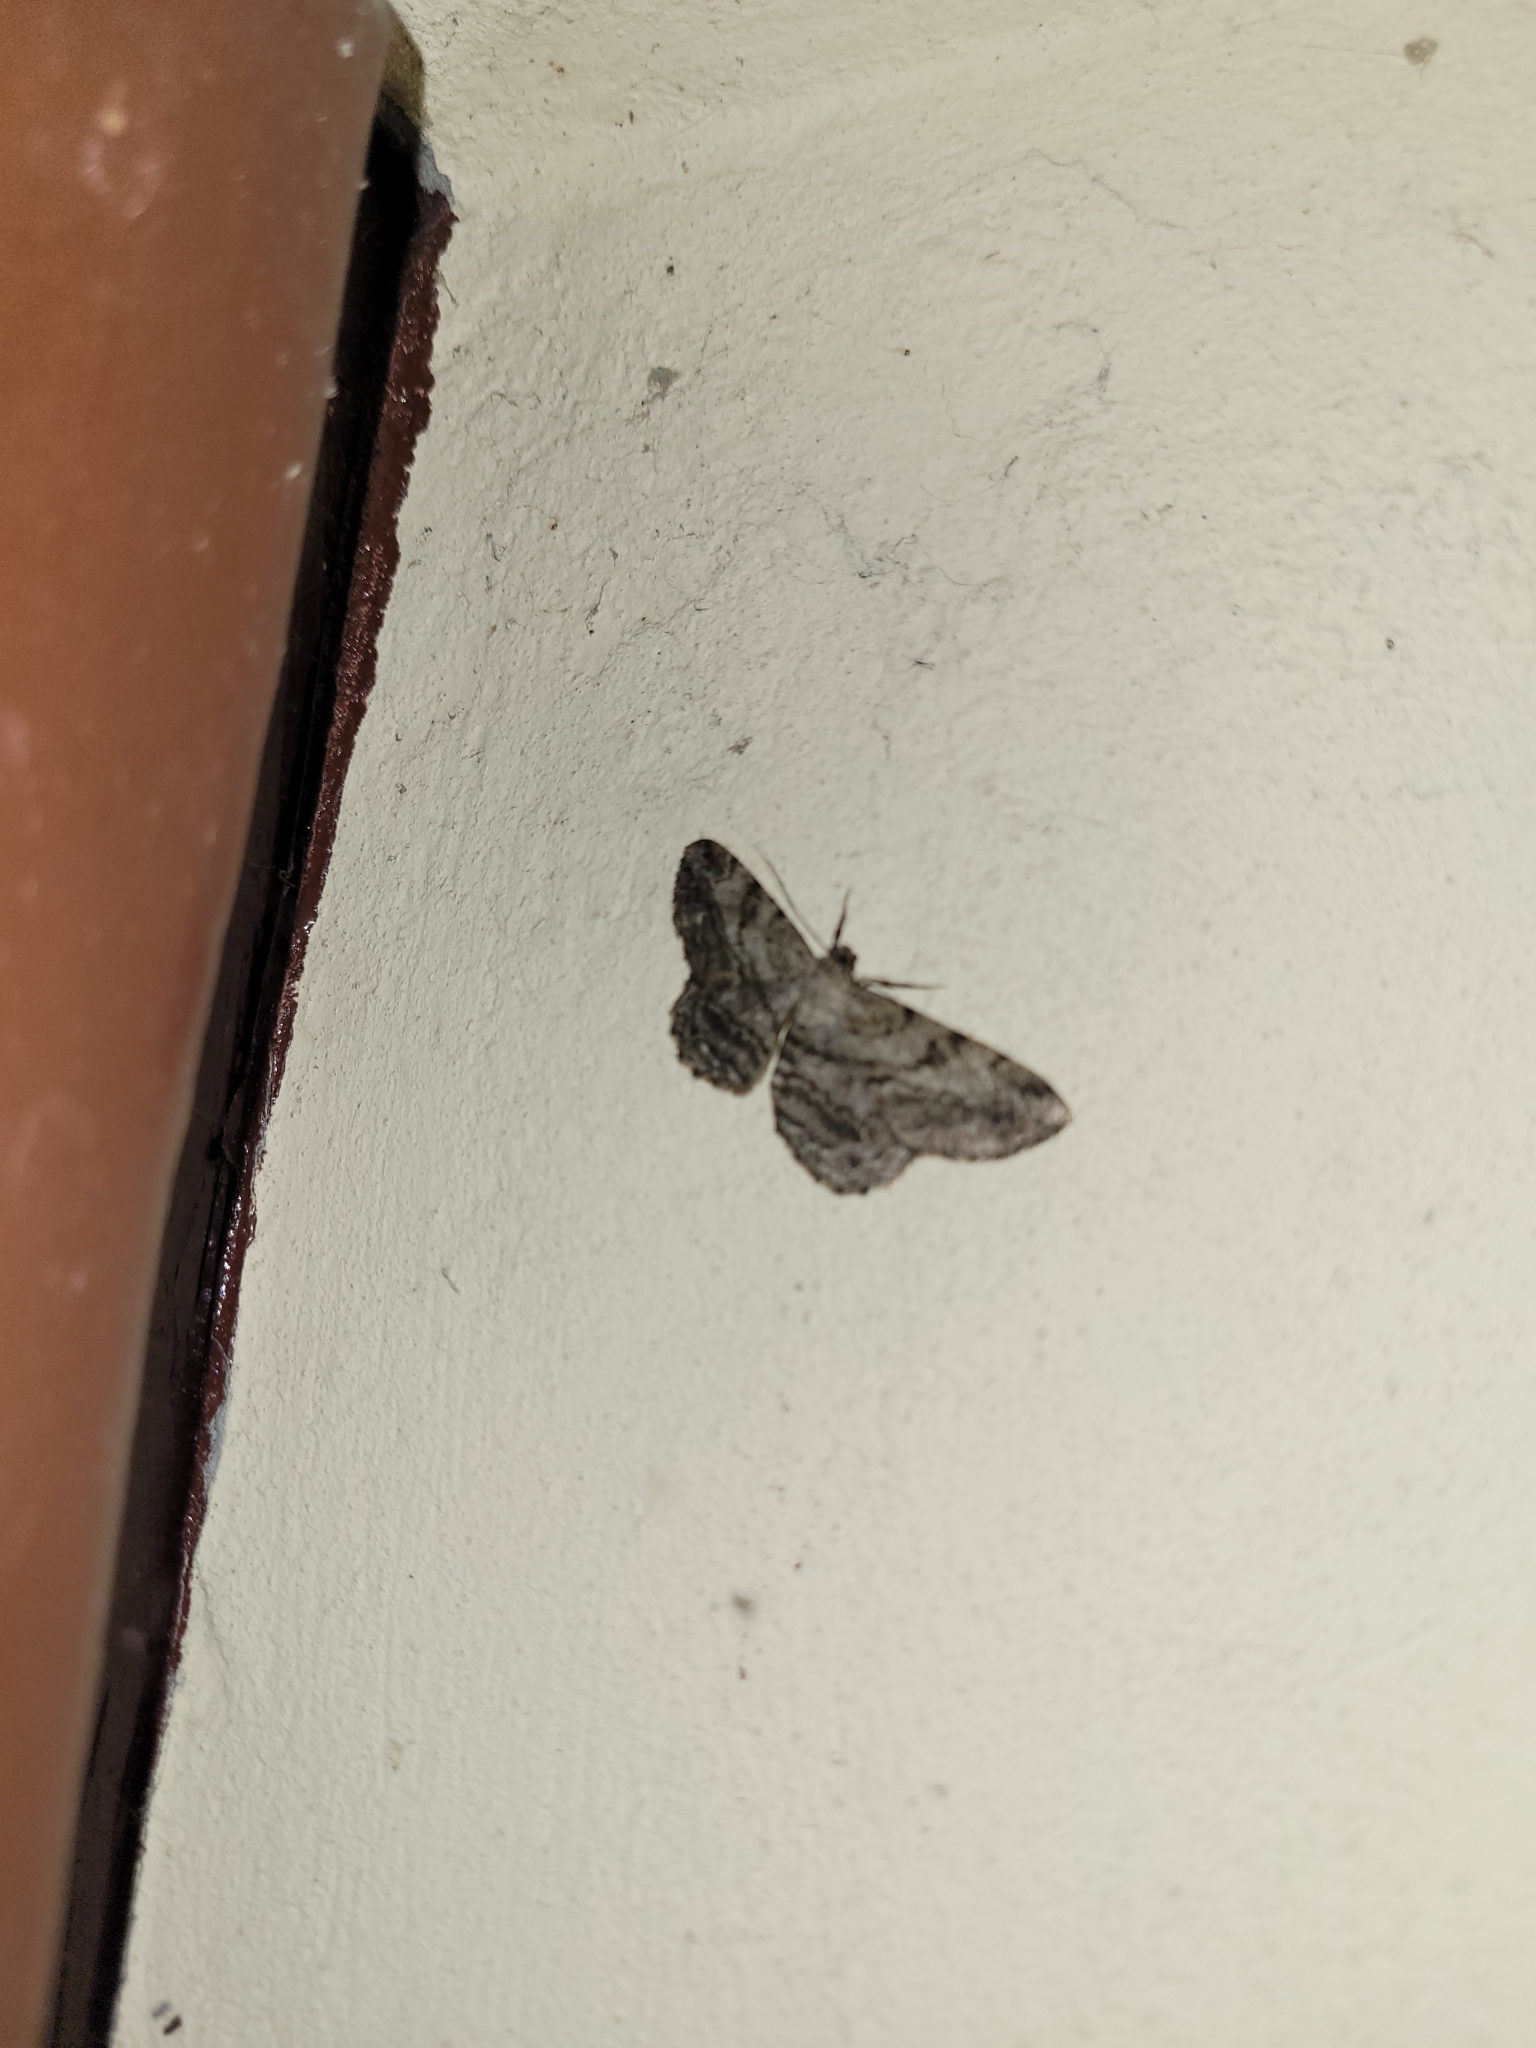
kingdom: Animalia
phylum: Arthropoda
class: Insecta
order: Lepidoptera
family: Geometridae
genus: Peribatodes
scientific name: Peribatodes rhomboidaria
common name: Willow beauty
